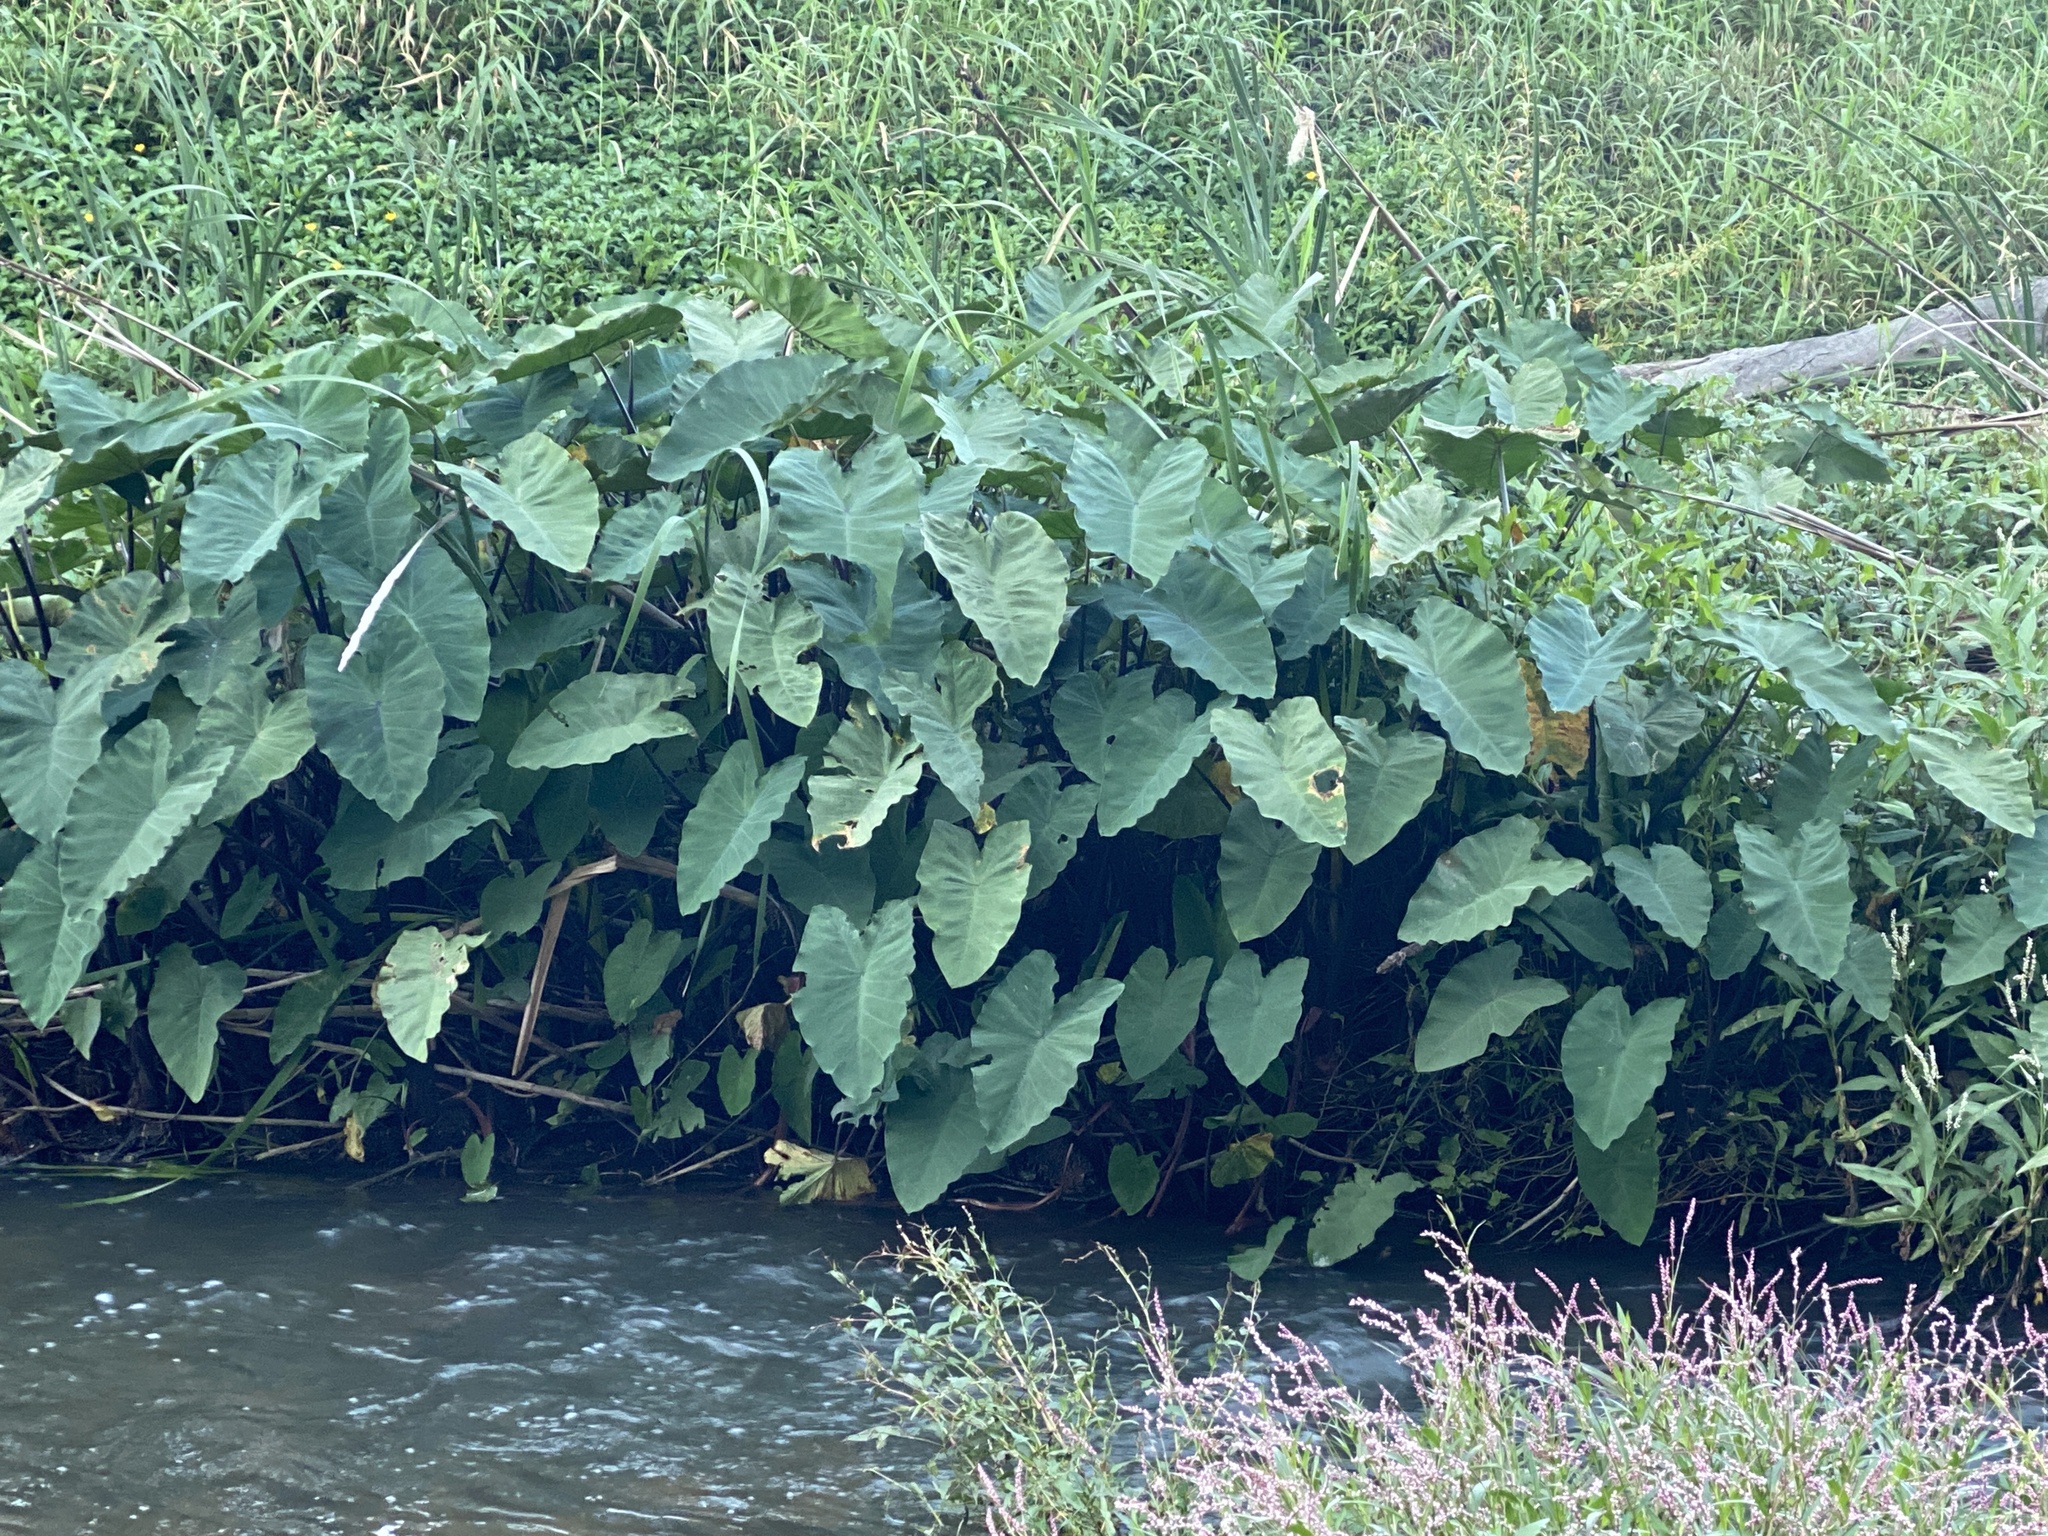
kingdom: Plantae
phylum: Tracheophyta
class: Liliopsida
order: Alismatales
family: Araceae
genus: Colocasia
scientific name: Colocasia esculenta
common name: Taro
